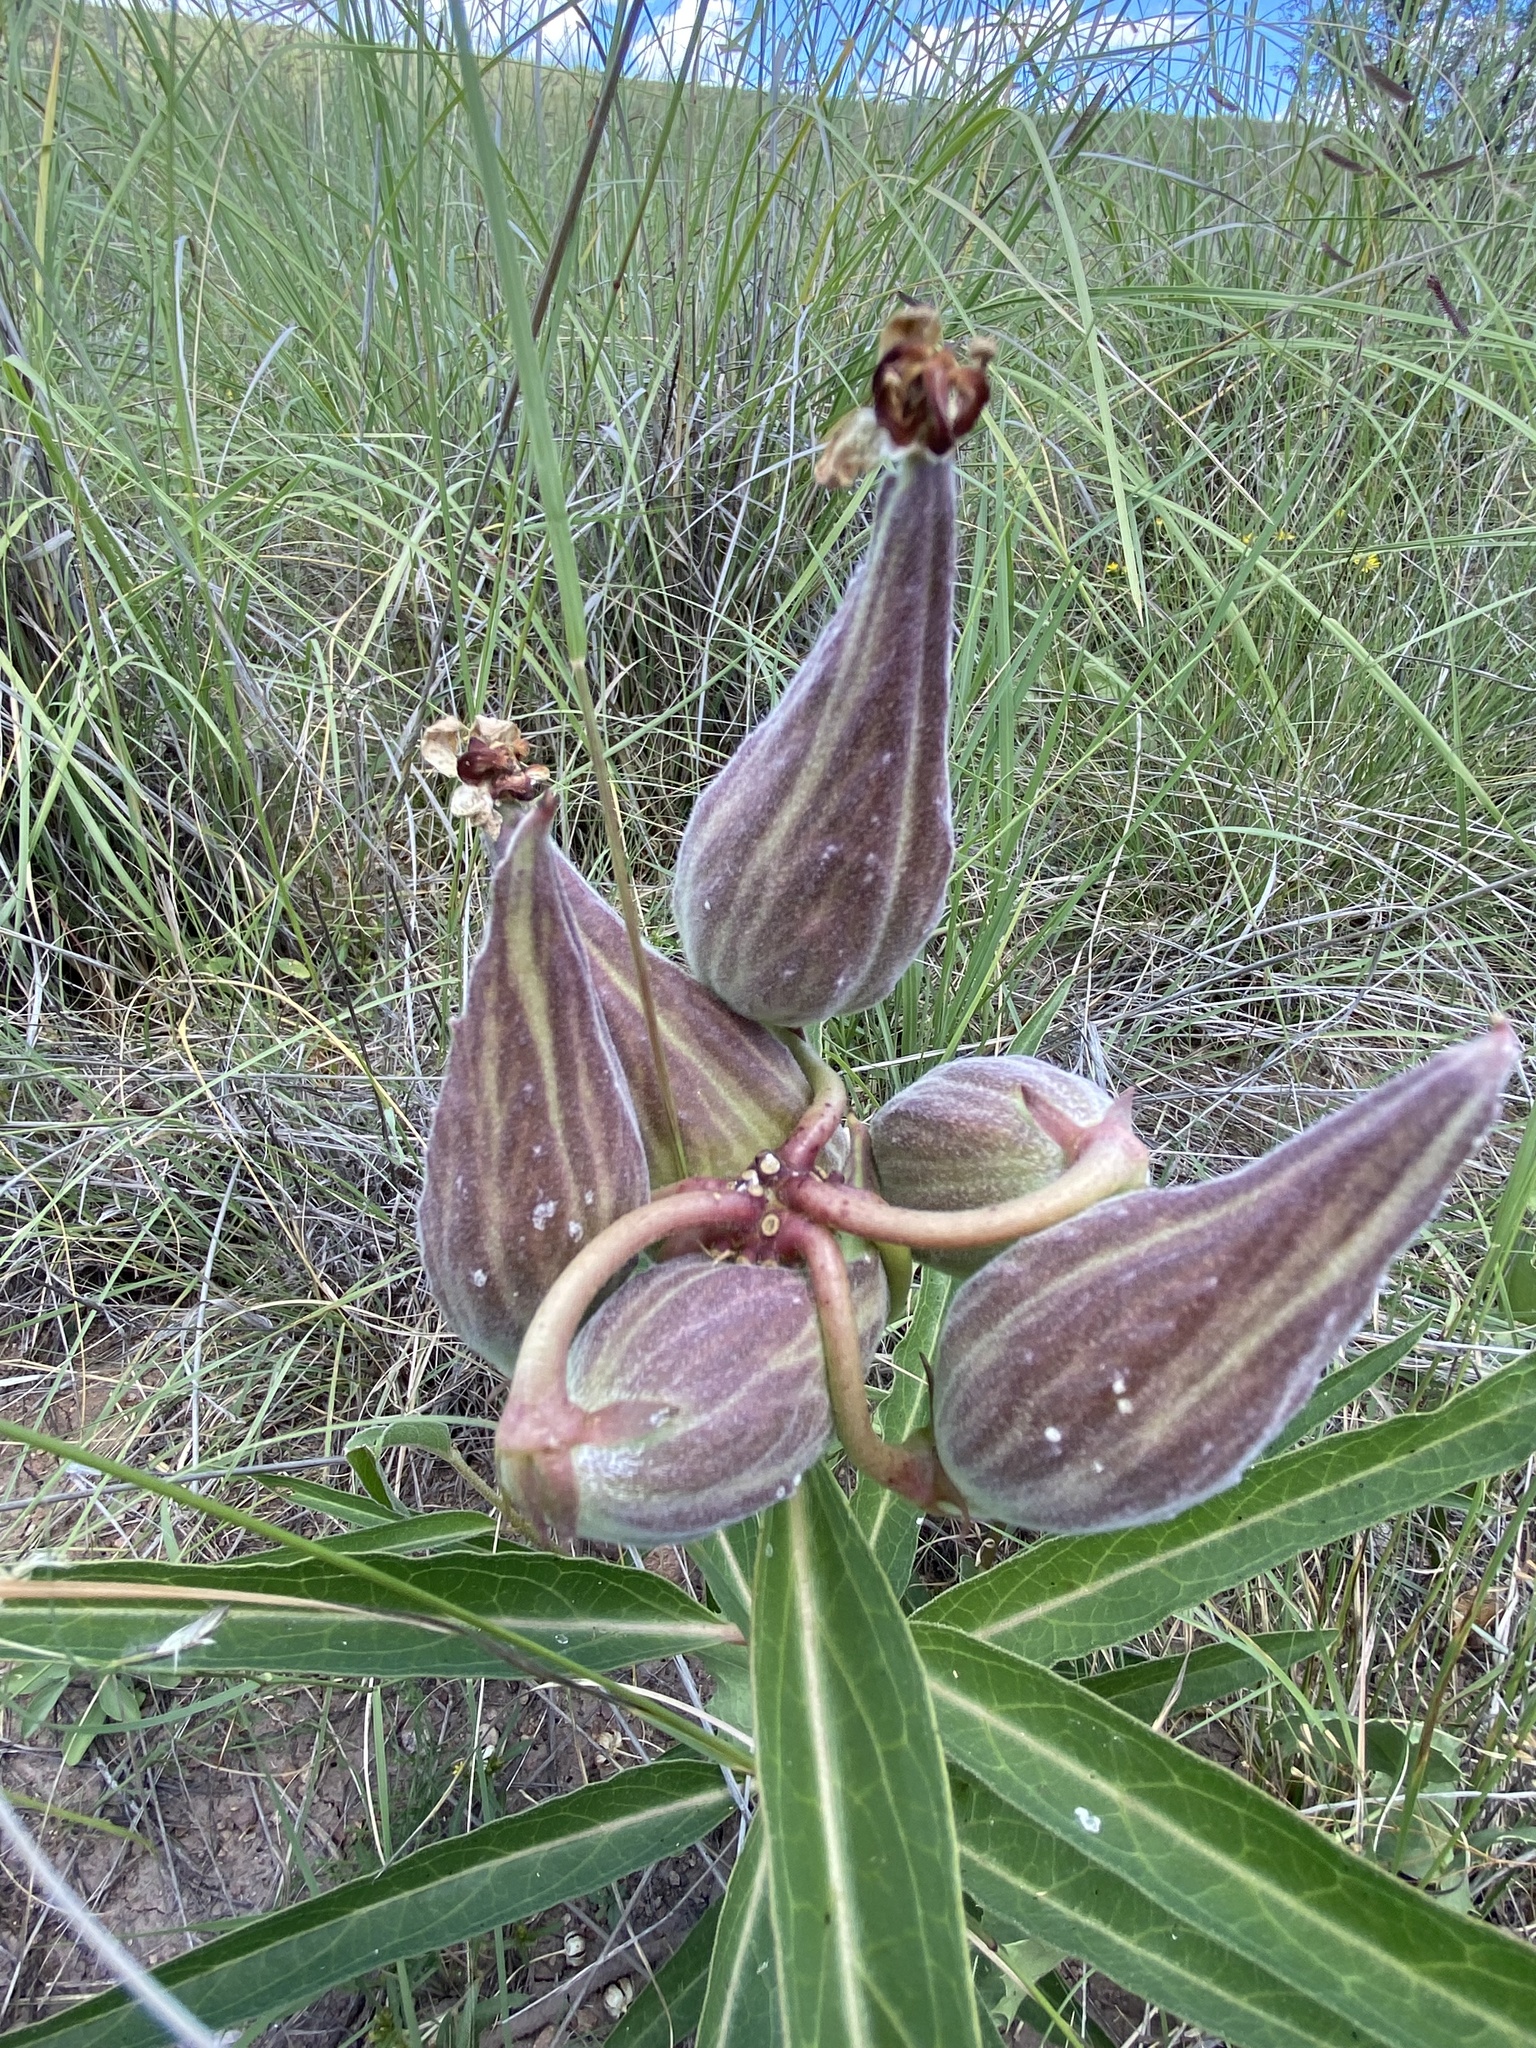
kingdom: Plantae
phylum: Tracheophyta
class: Magnoliopsida
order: Gentianales
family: Apocynaceae
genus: Asclepias
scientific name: Asclepias asperula
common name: Antelope horns
